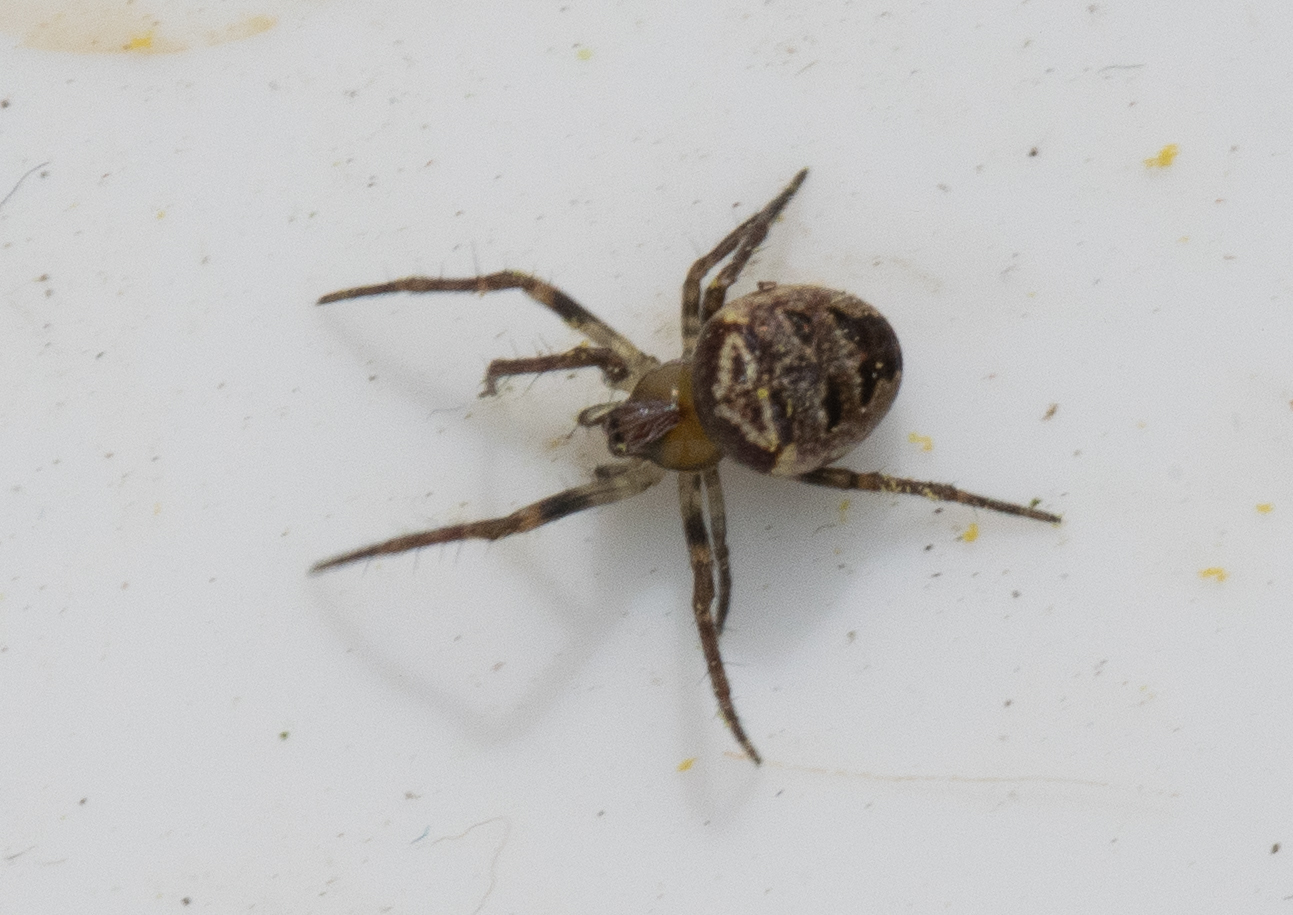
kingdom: Animalia
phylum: Arthropoda
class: Arachnida
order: Araneae
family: Araneidae
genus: Zilla
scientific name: Zilla diodia
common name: Zilla diodia
